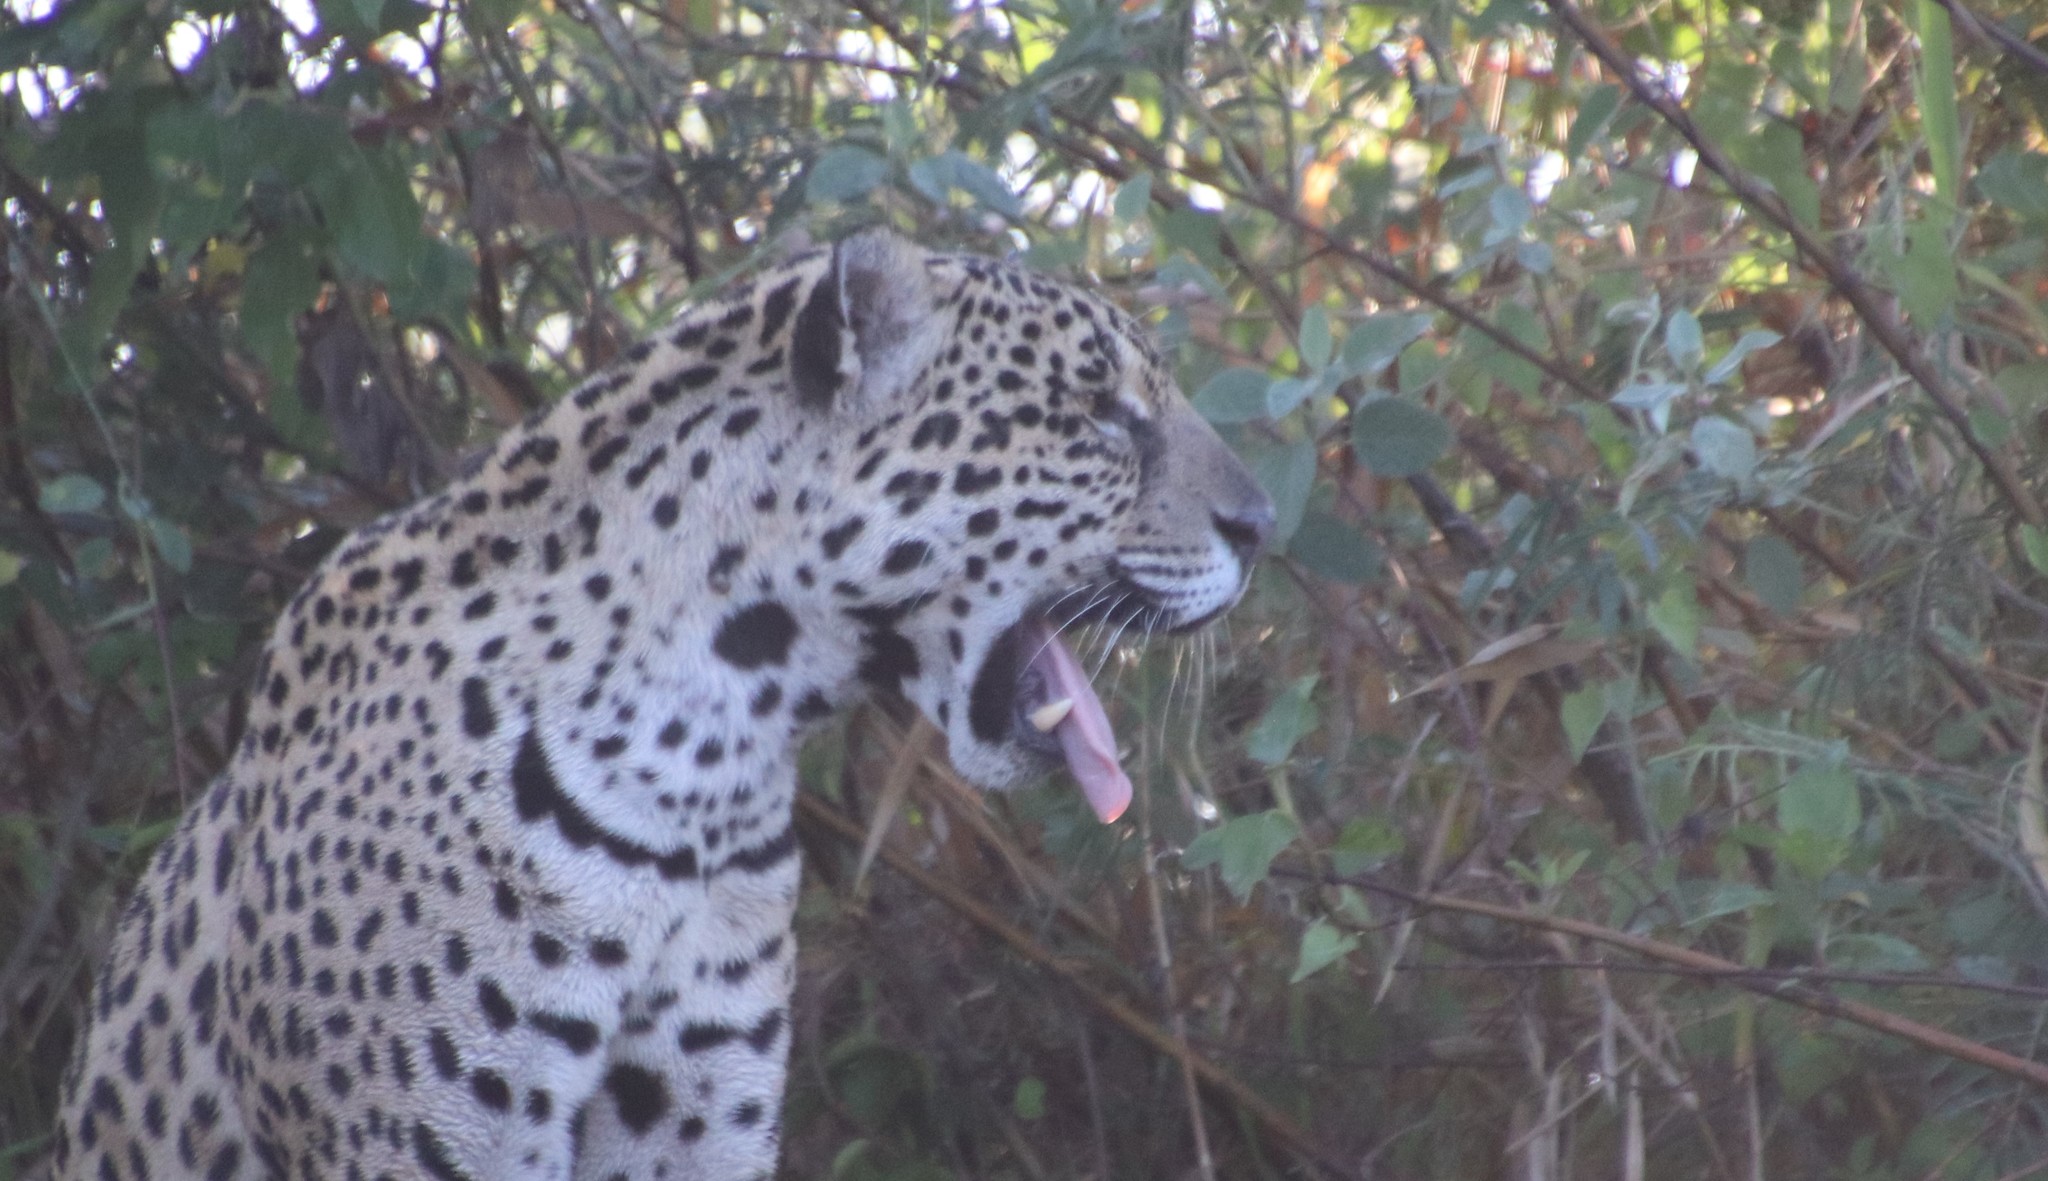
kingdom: Animalia
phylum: Chordata
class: Mammalia
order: Carnivora
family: Felidae
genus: Panthera
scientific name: Panthera onca
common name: Jaguar
